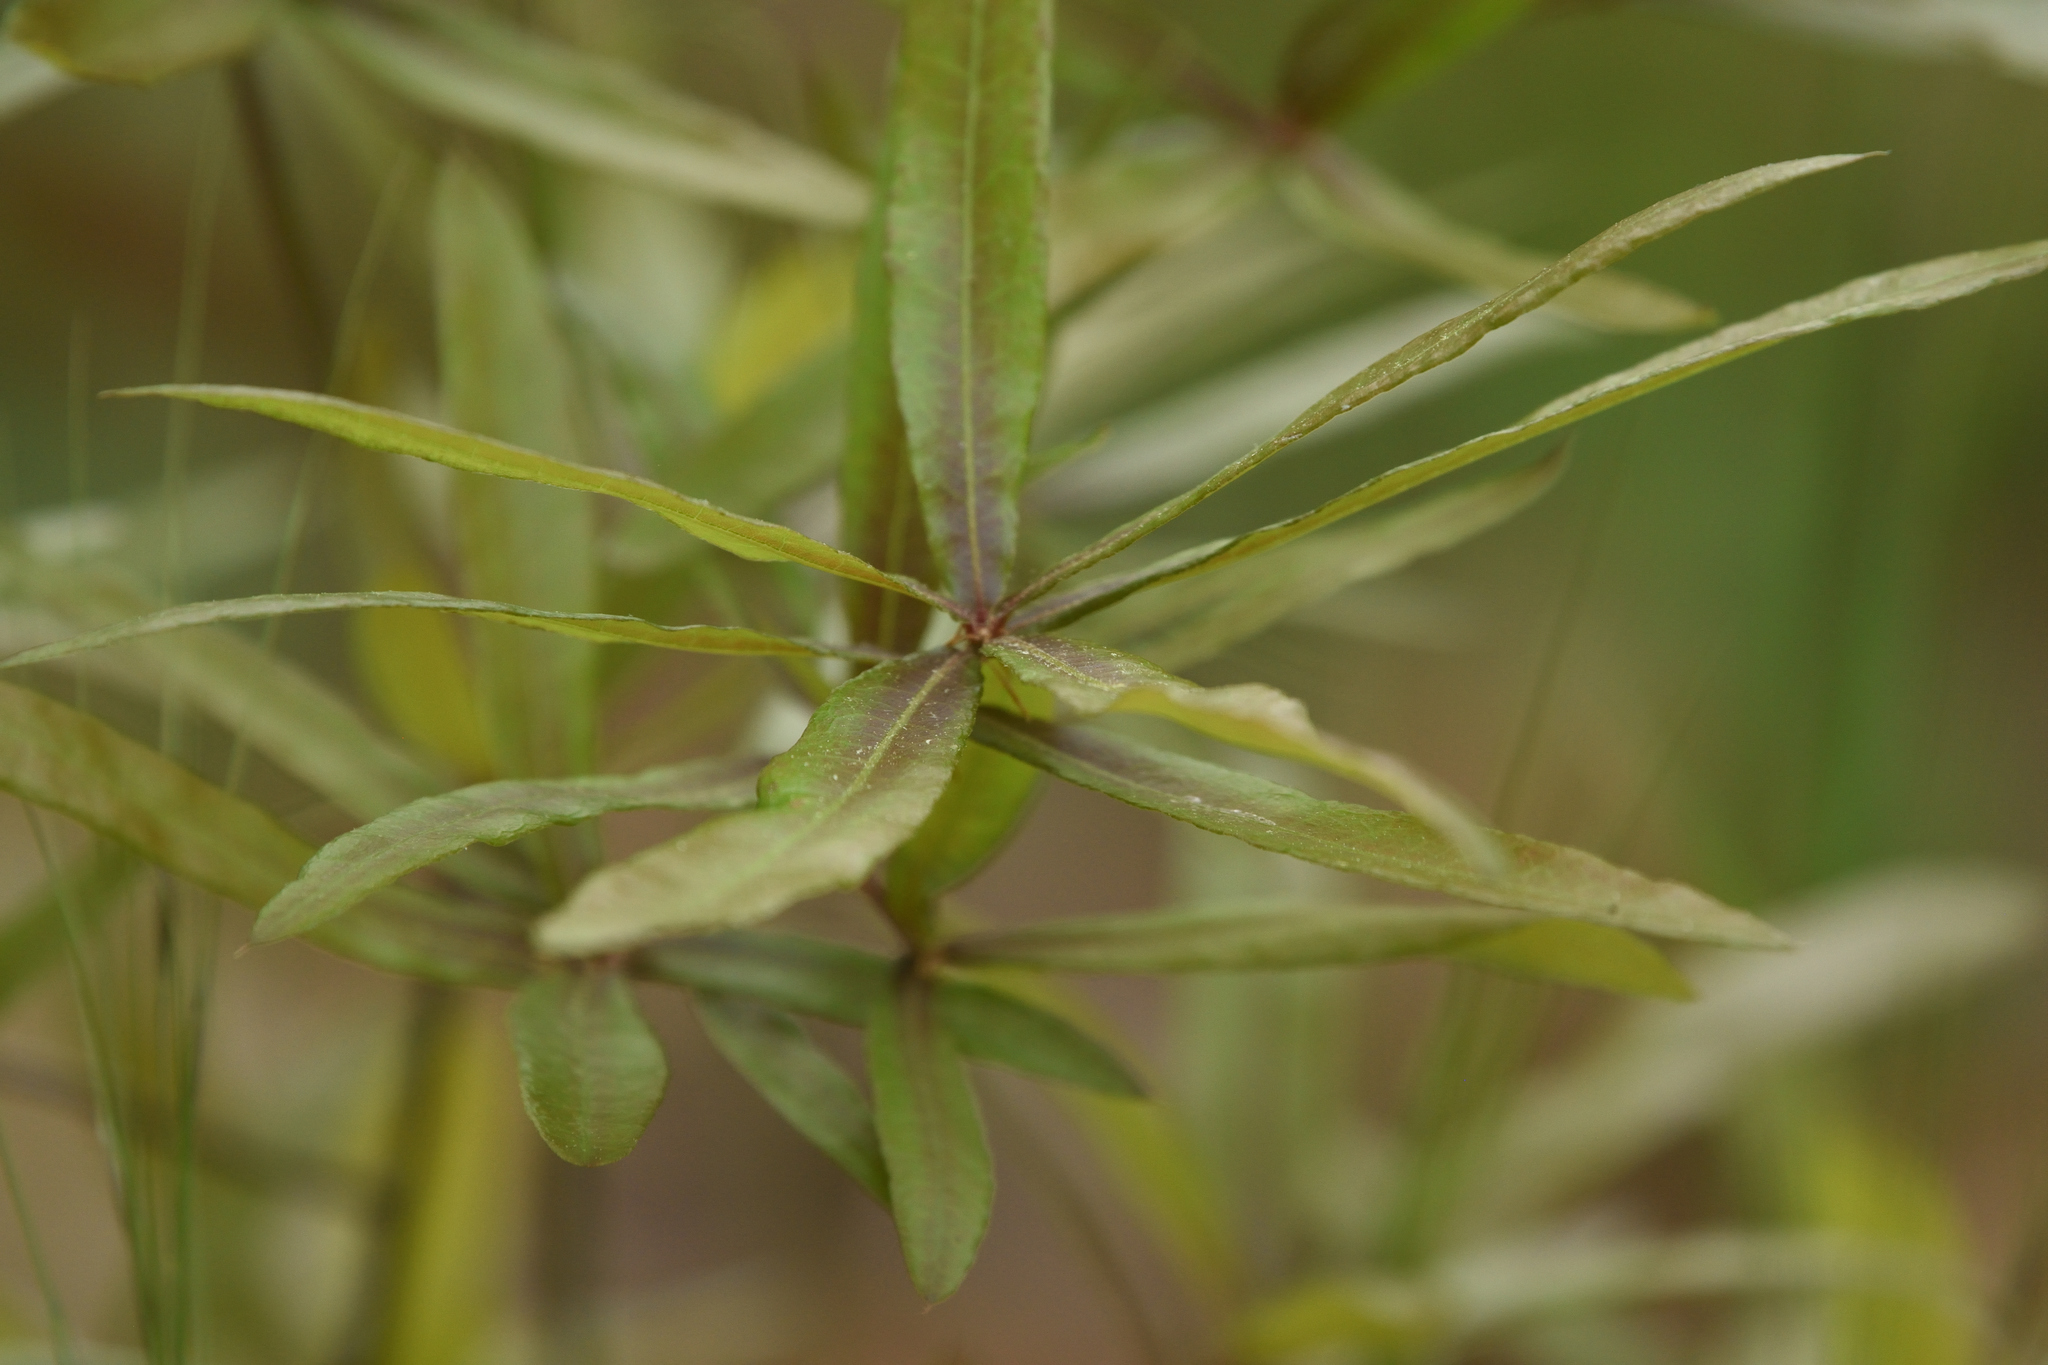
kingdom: Plantae
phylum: Tracheophyta
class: Magnoliopsida
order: Fagales
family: Fagaceae
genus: Quercus
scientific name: Quercus phellos
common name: Willow oak
